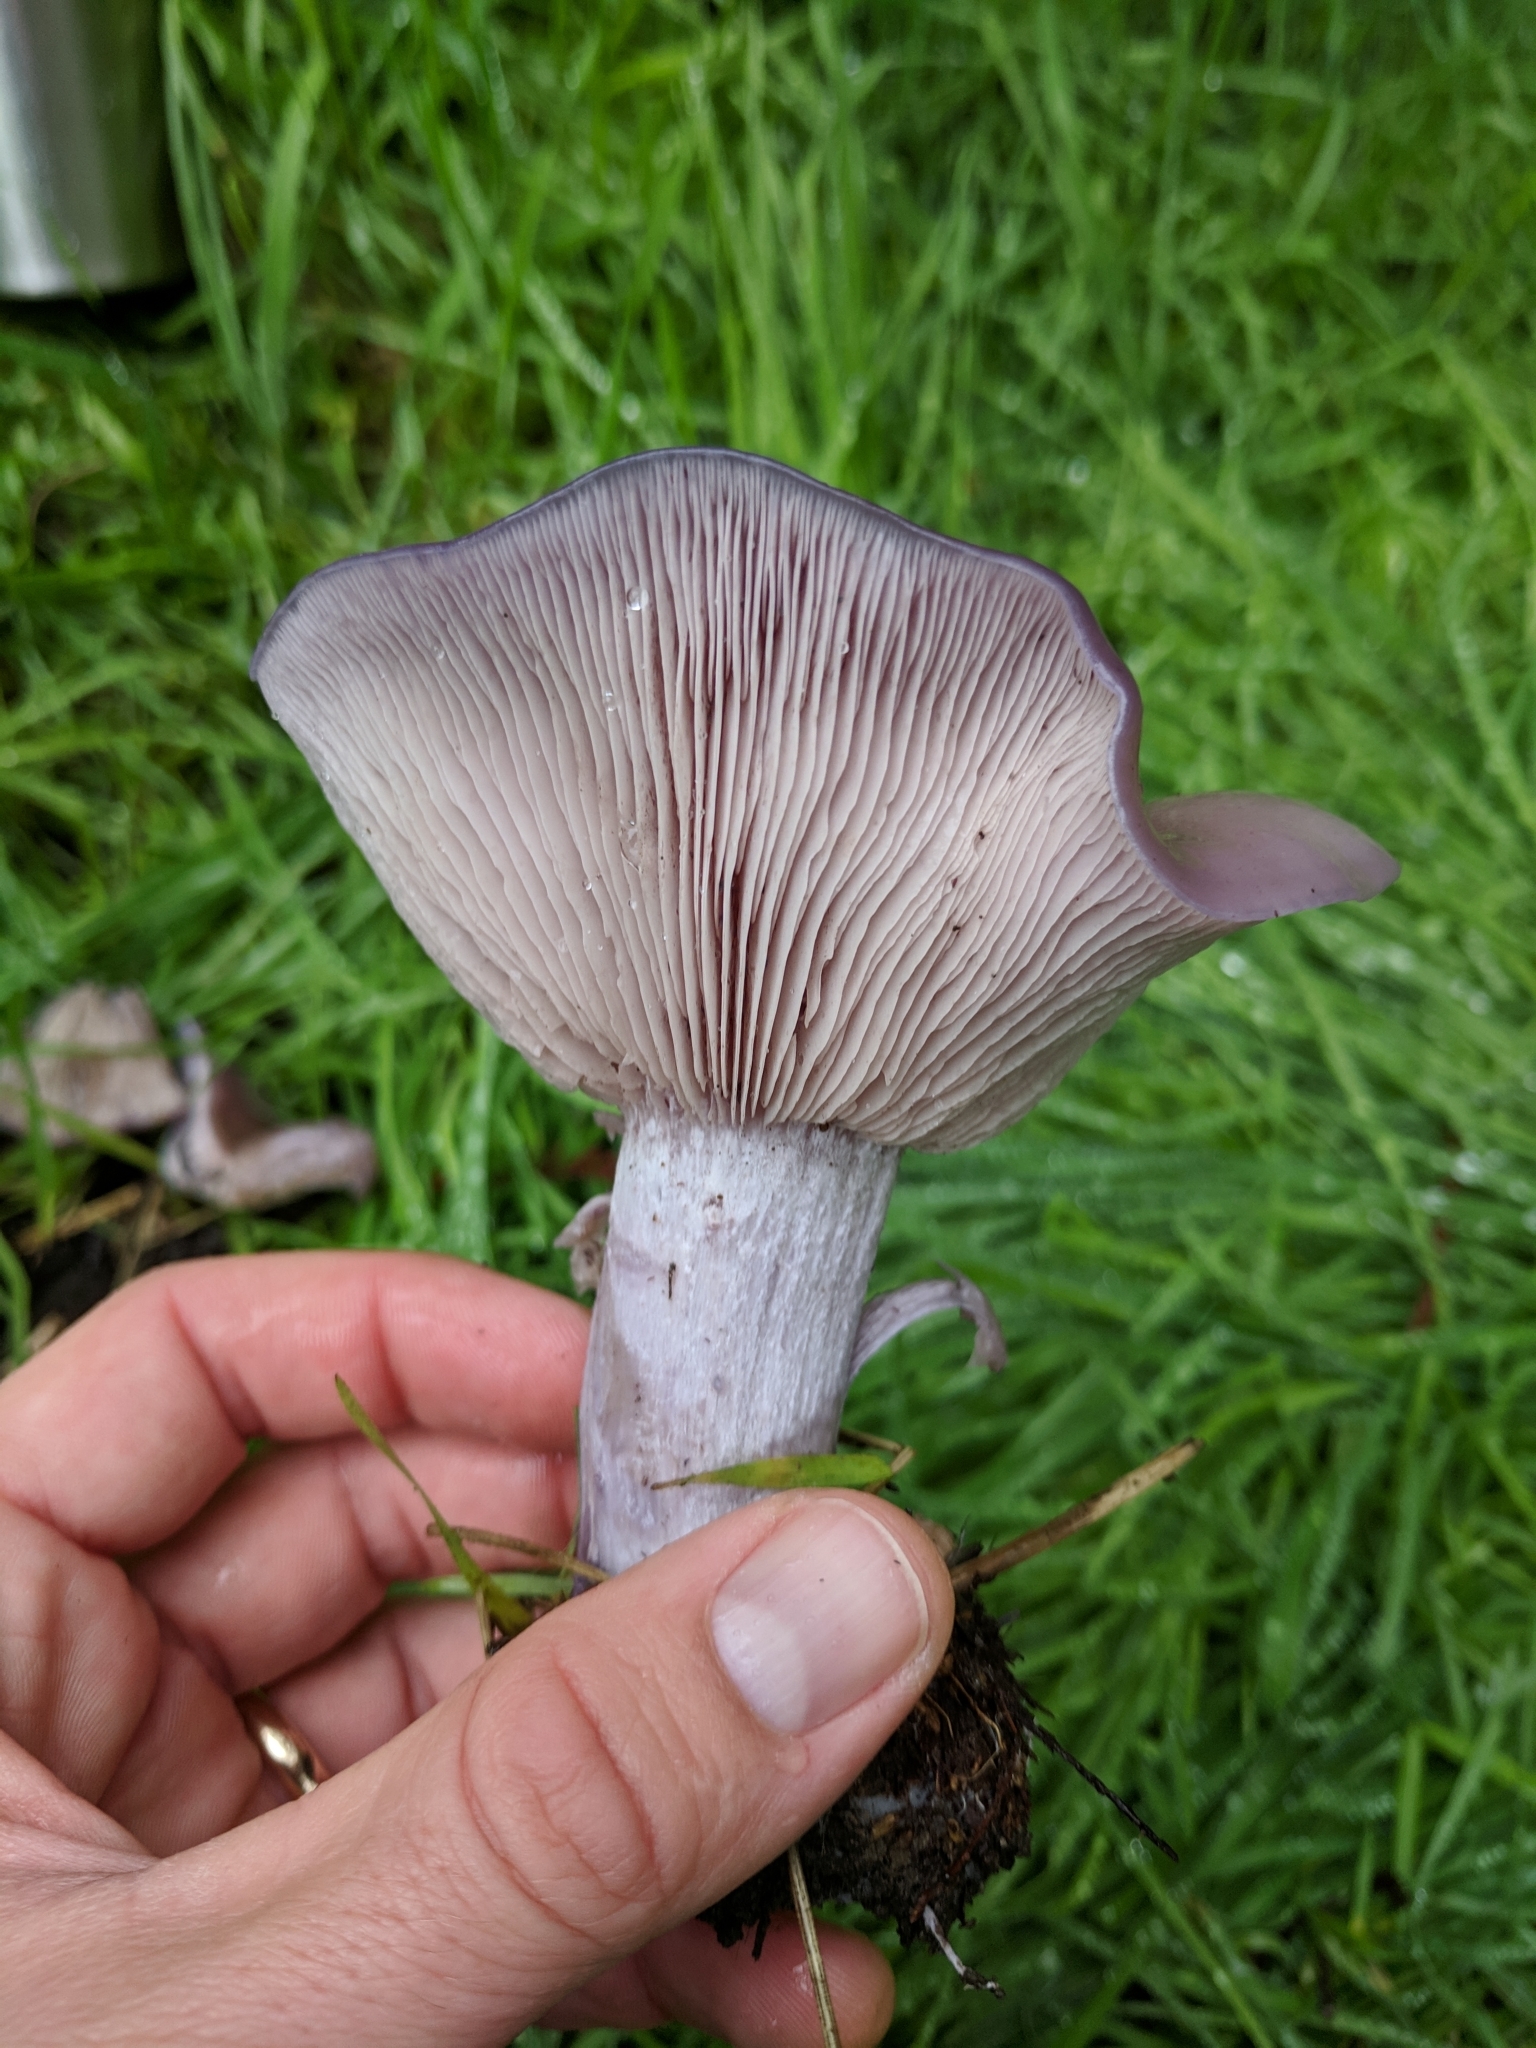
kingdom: Fungi
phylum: Basidiomycota
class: Agaricomycetes
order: Agaricales
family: Tricholomataceae
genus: Collybia
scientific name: Collybia
